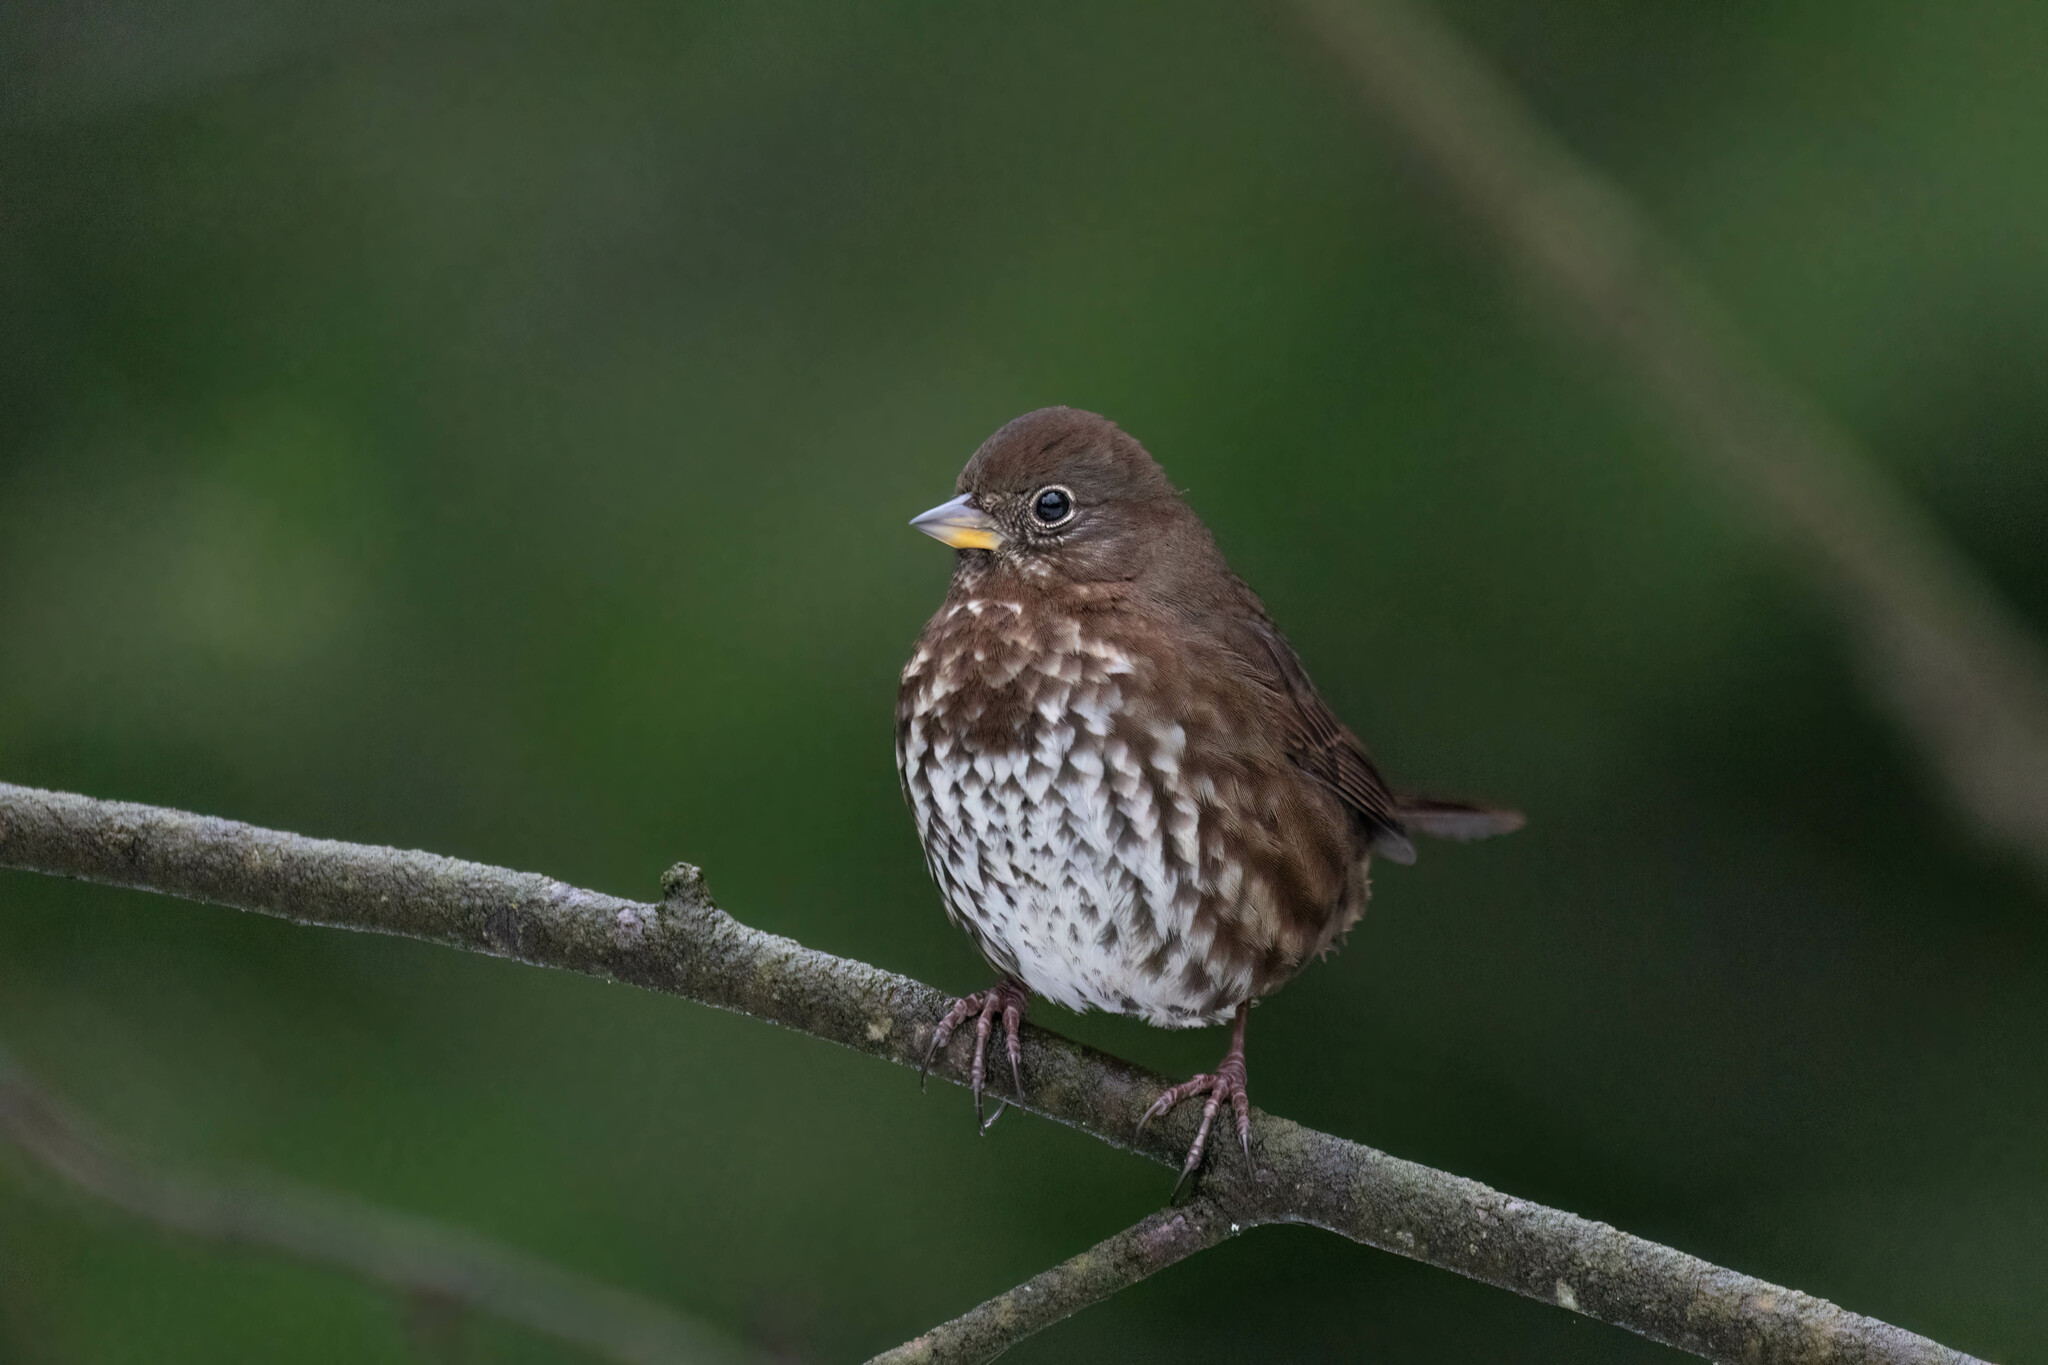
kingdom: Animalia
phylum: Chordata
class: Aves
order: Passeriformes
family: Passerellidae
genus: Passerella
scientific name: Passerella iliaca
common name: Fox sparrow
